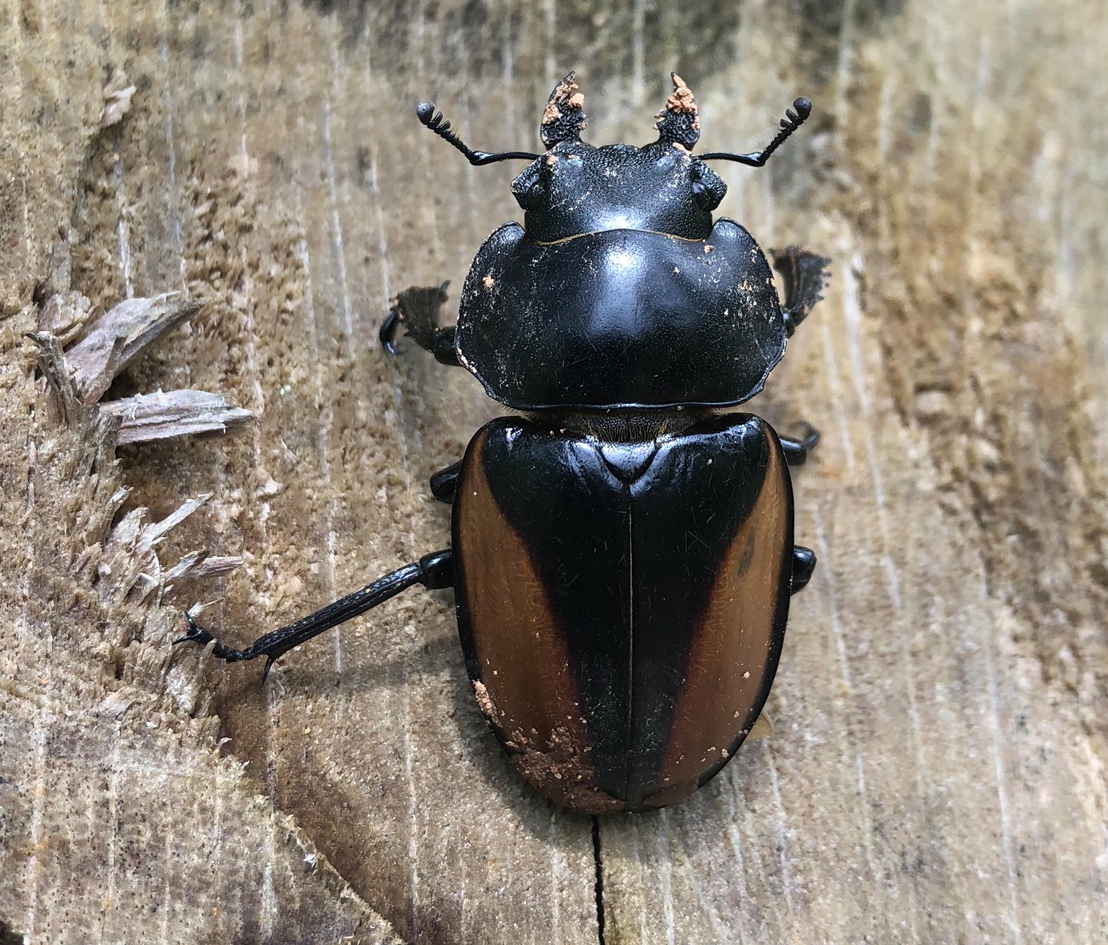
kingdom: Animalia
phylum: Arthropoda
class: Insecta
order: Coleoptera
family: Lucanidae
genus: Neolucanus
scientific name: Neolucanus parryi
